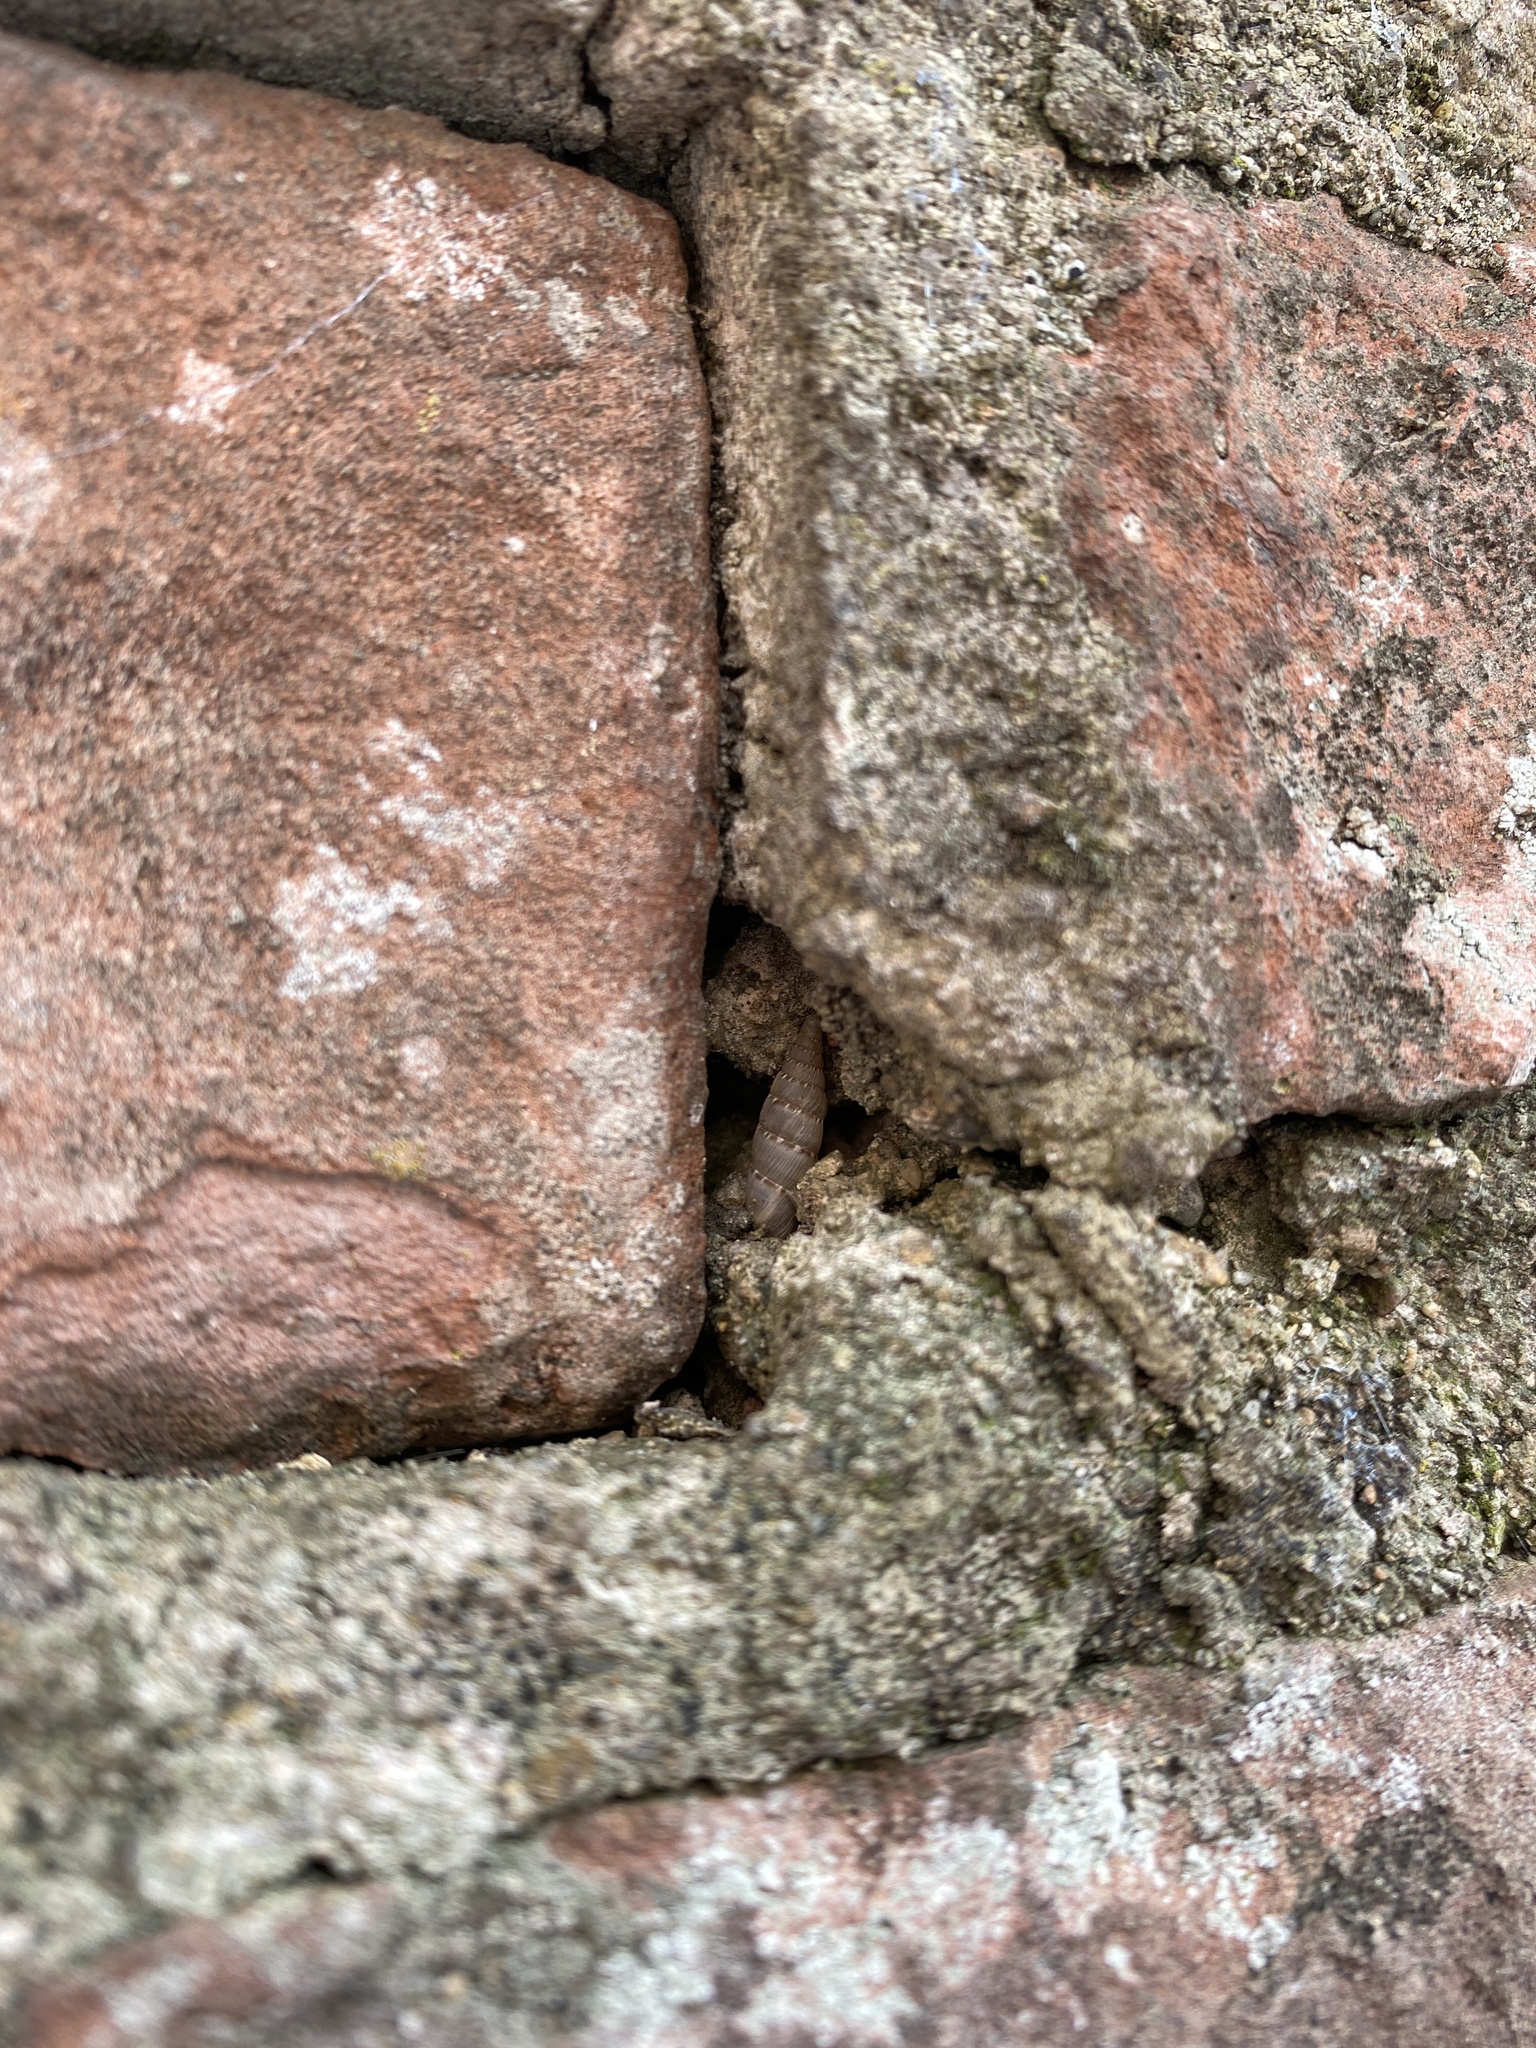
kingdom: Animalia
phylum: Mollusca
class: Gastropoda
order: Stylommatophora
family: Clausiliidae
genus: Papillifera
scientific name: Papillifera papillaris
